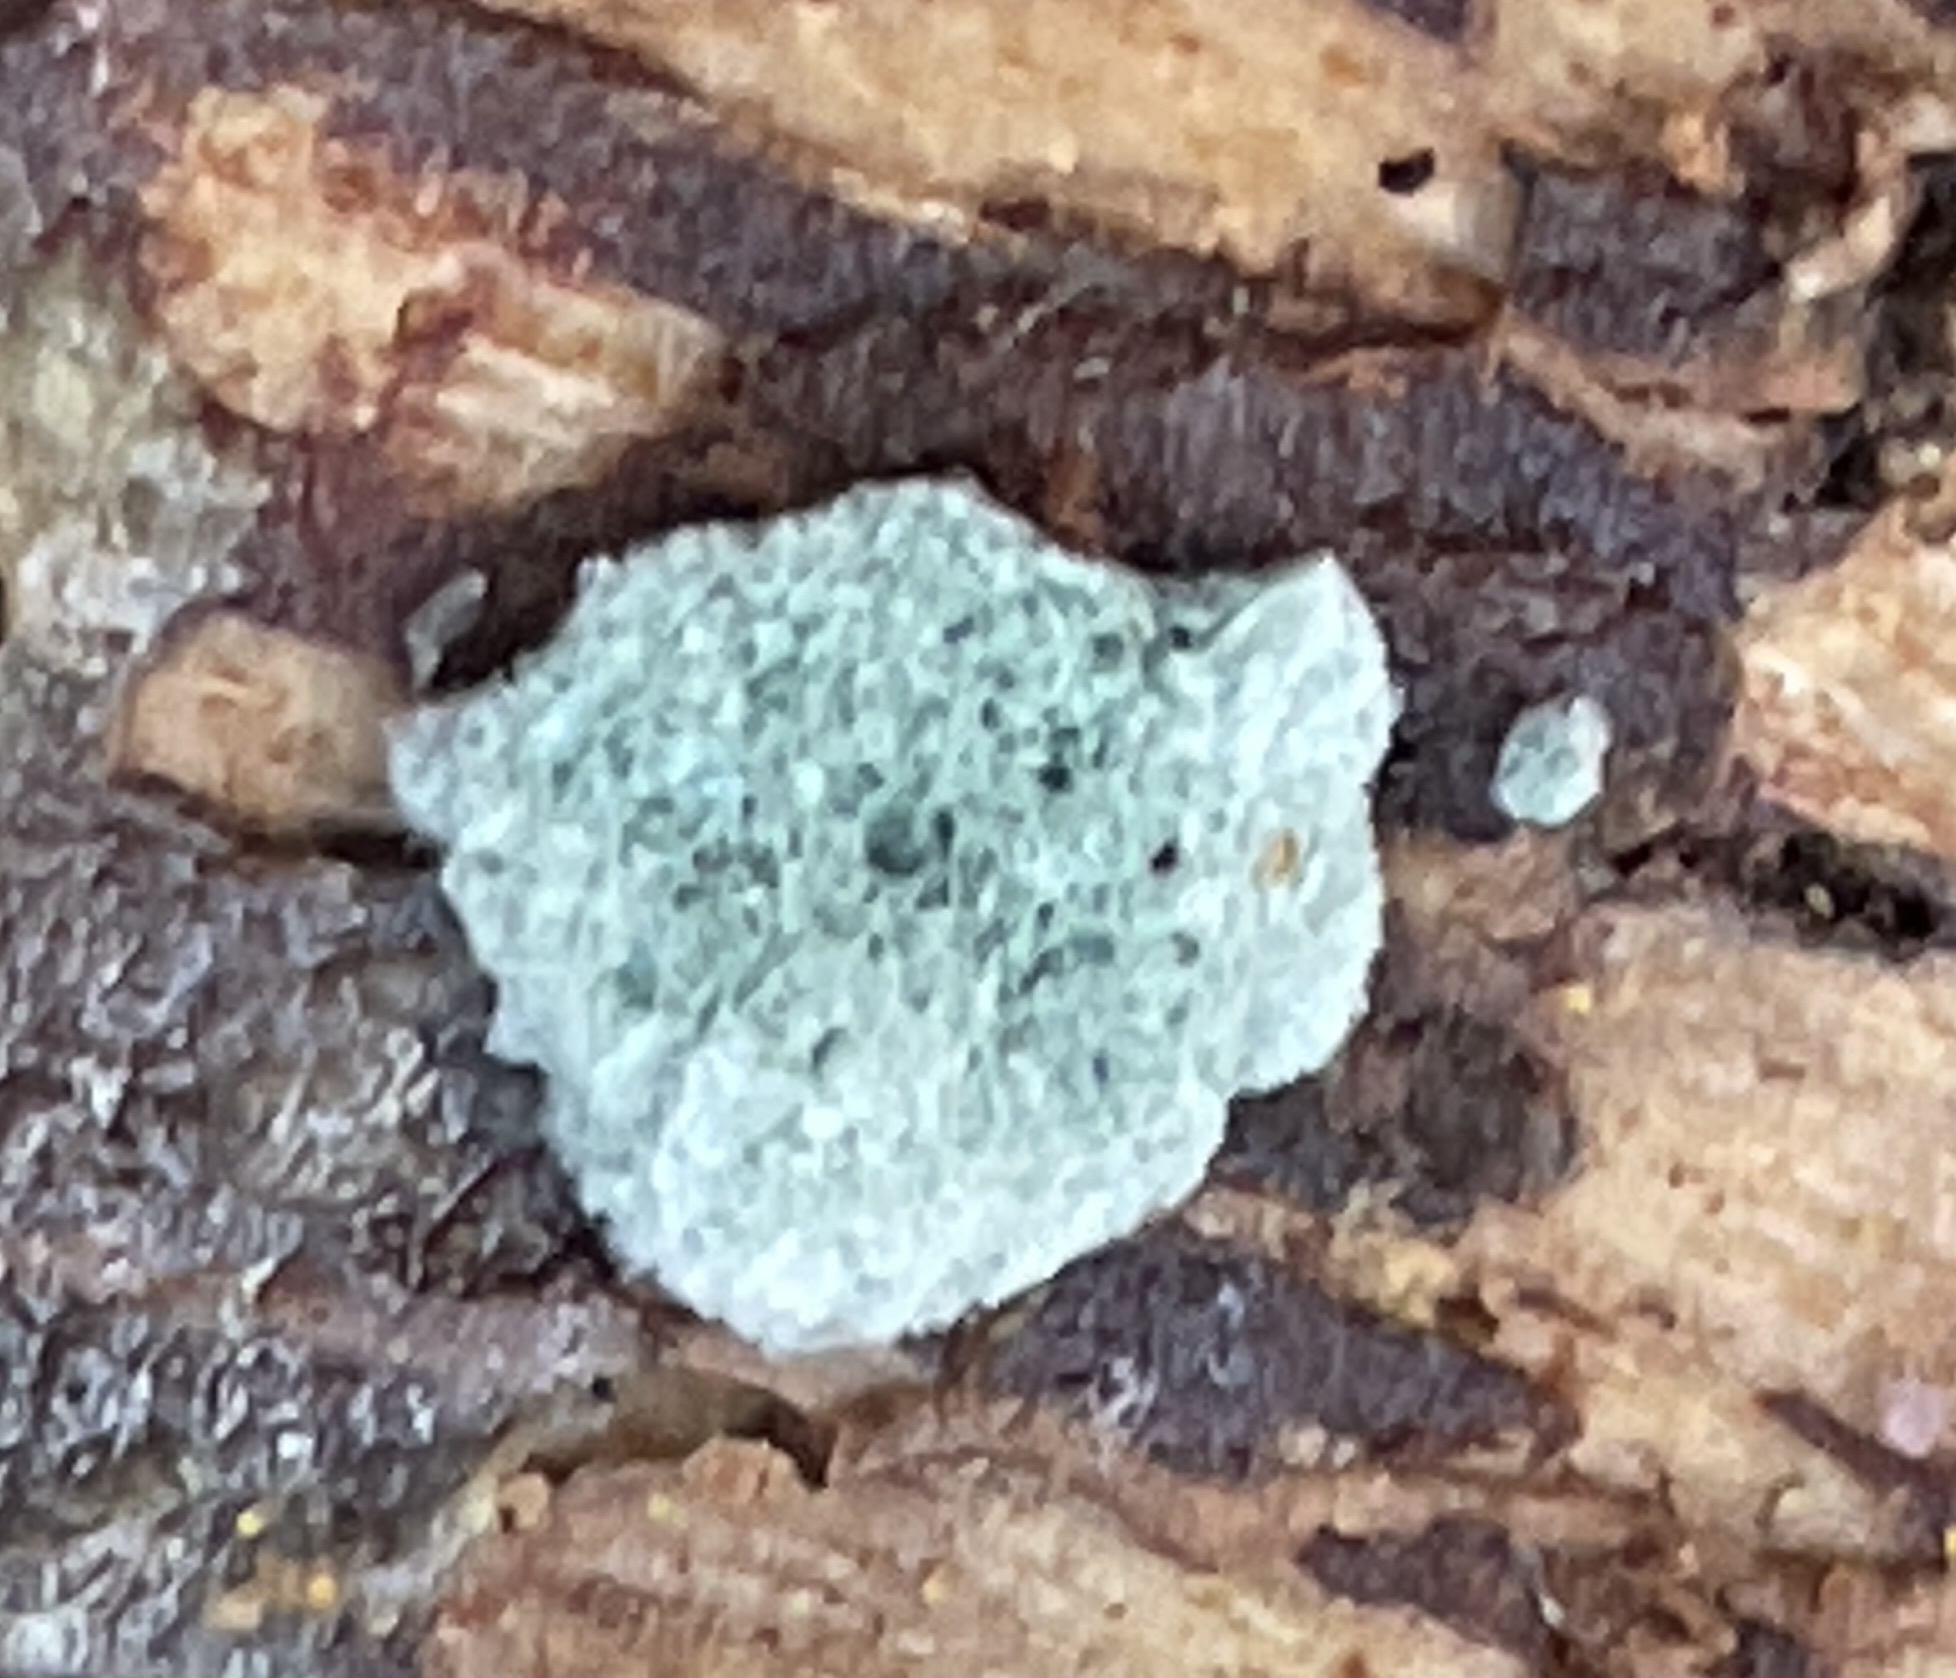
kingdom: Fungi
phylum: Ascomycota
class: Sordariomycetes
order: Hypocreales
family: Hypocreaceae
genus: Trichoderma
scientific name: Trichoderma viride
